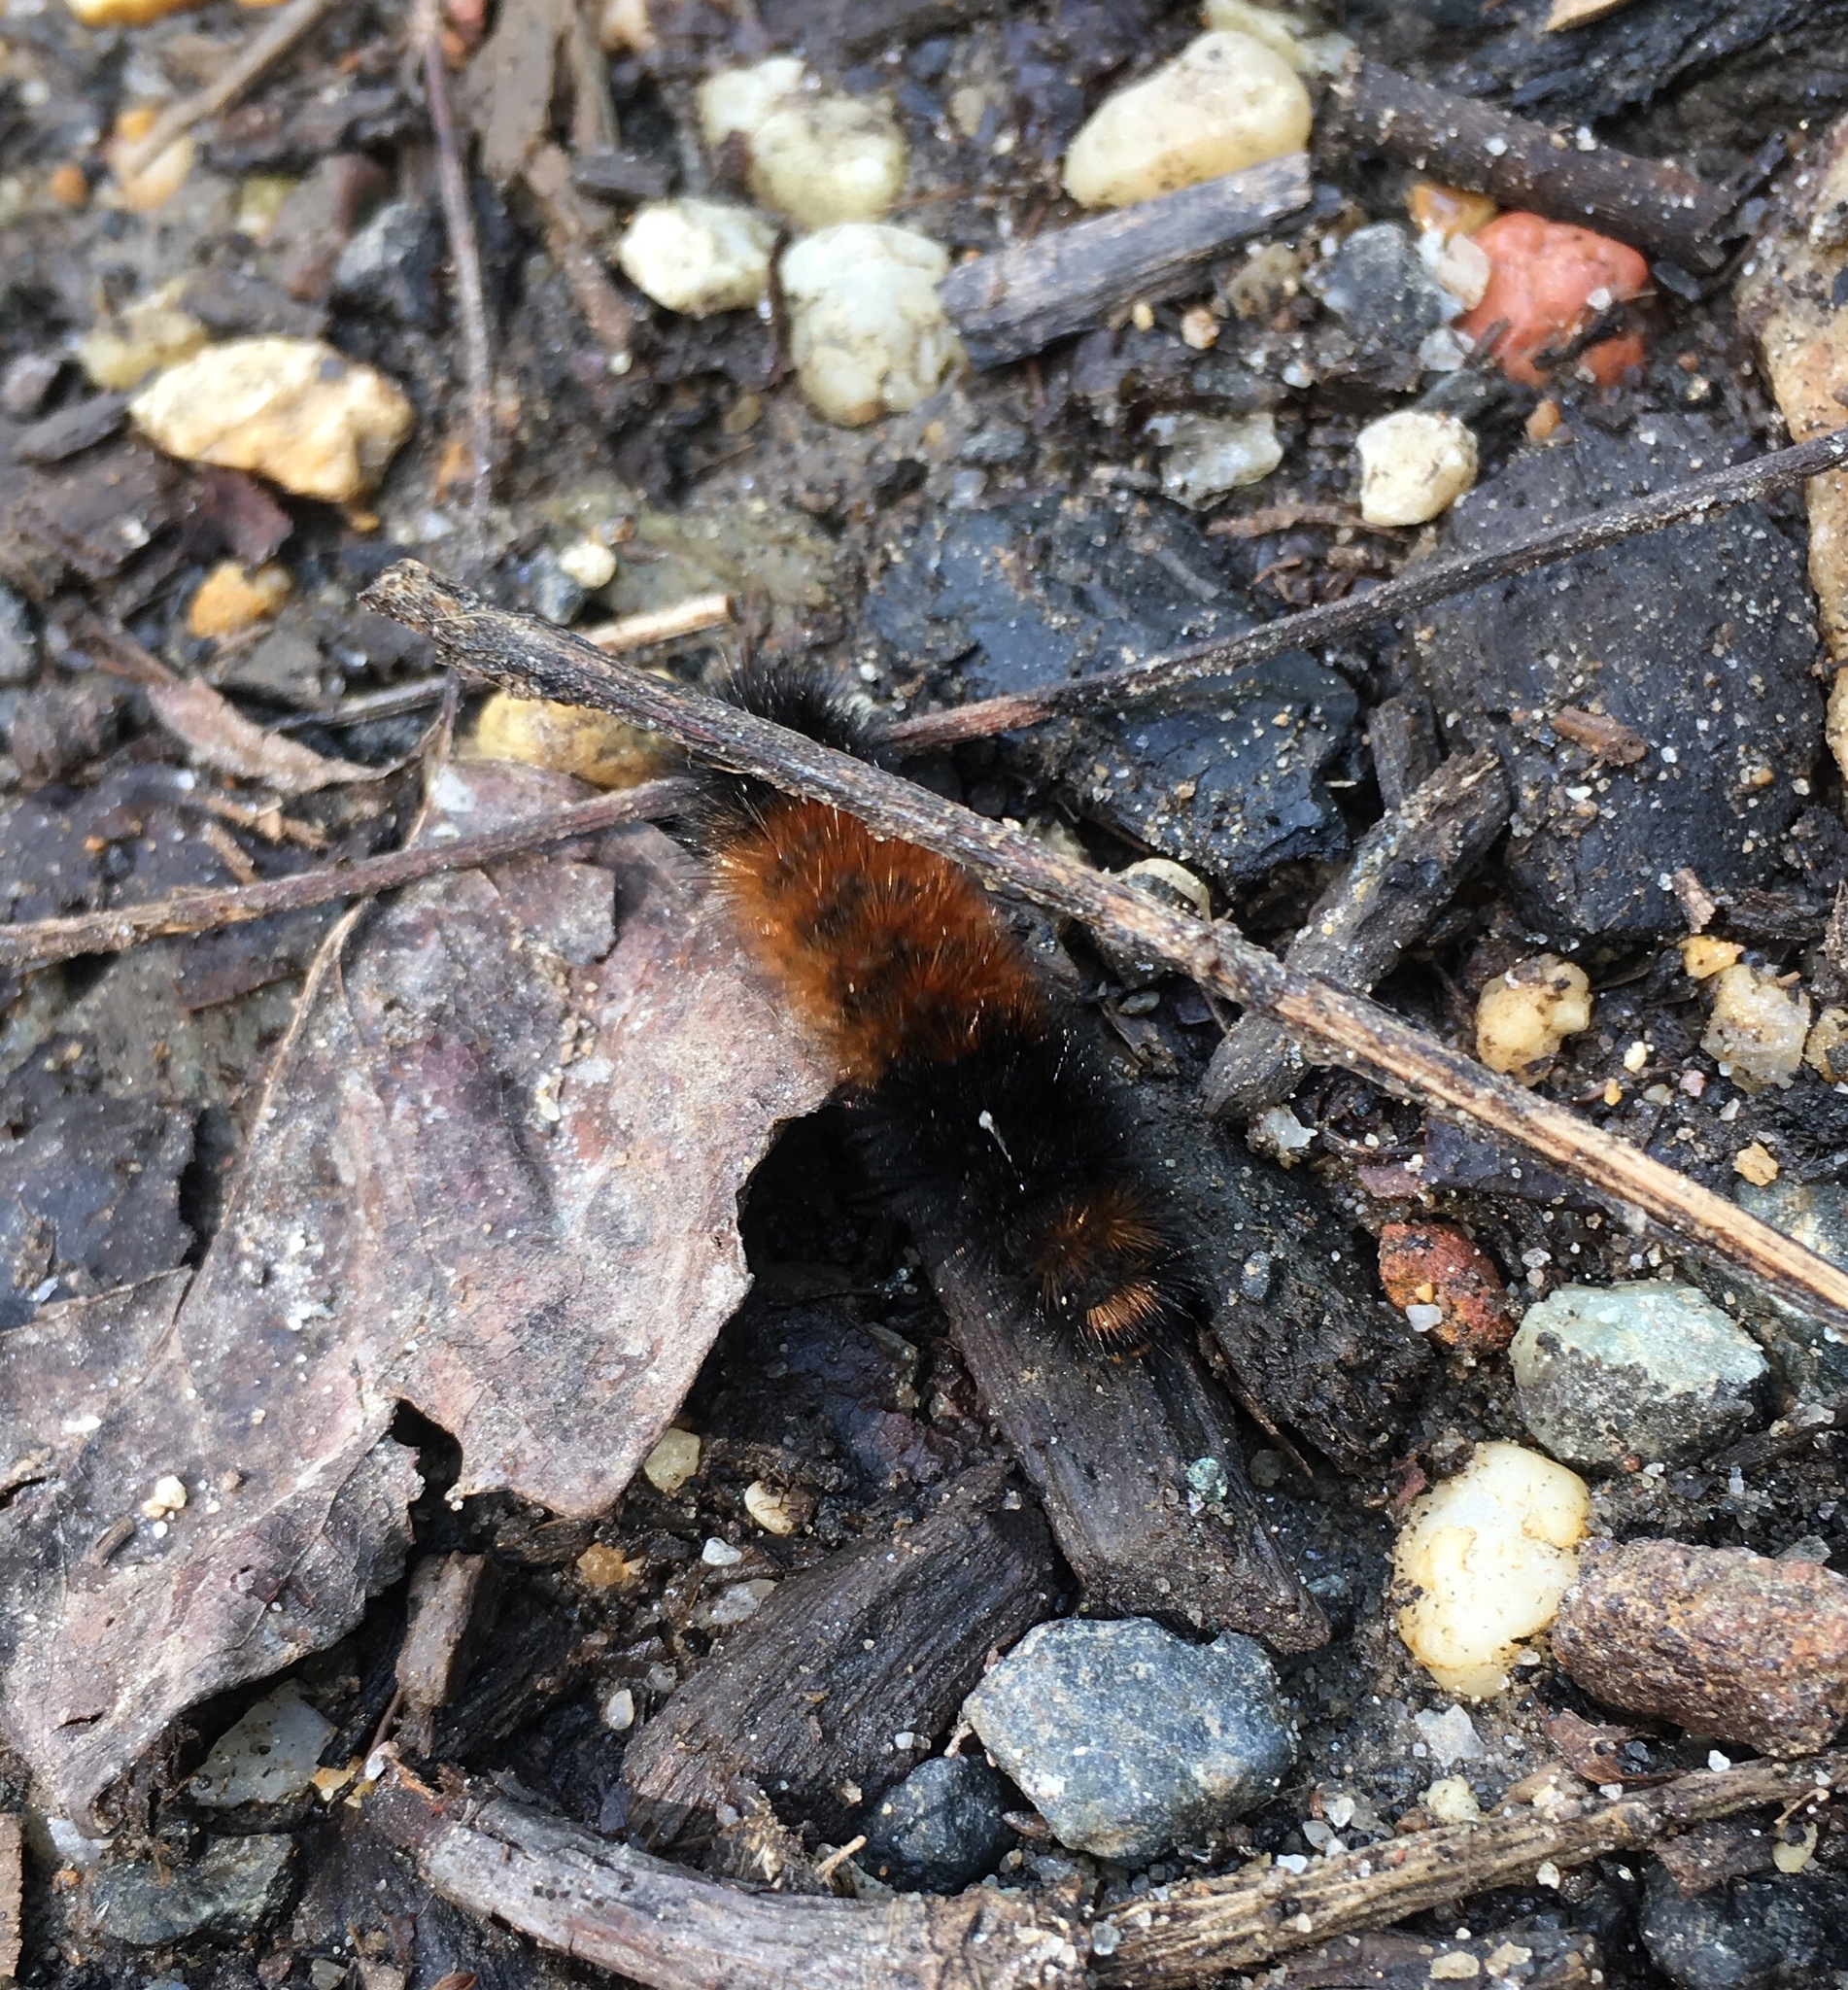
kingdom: Animalia
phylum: Arthropoda
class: Insecta
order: Lepidoptera
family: Erebidae
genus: Pyrrharctia
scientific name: Pyrrharctia isabella
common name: Isabella tiger moth
